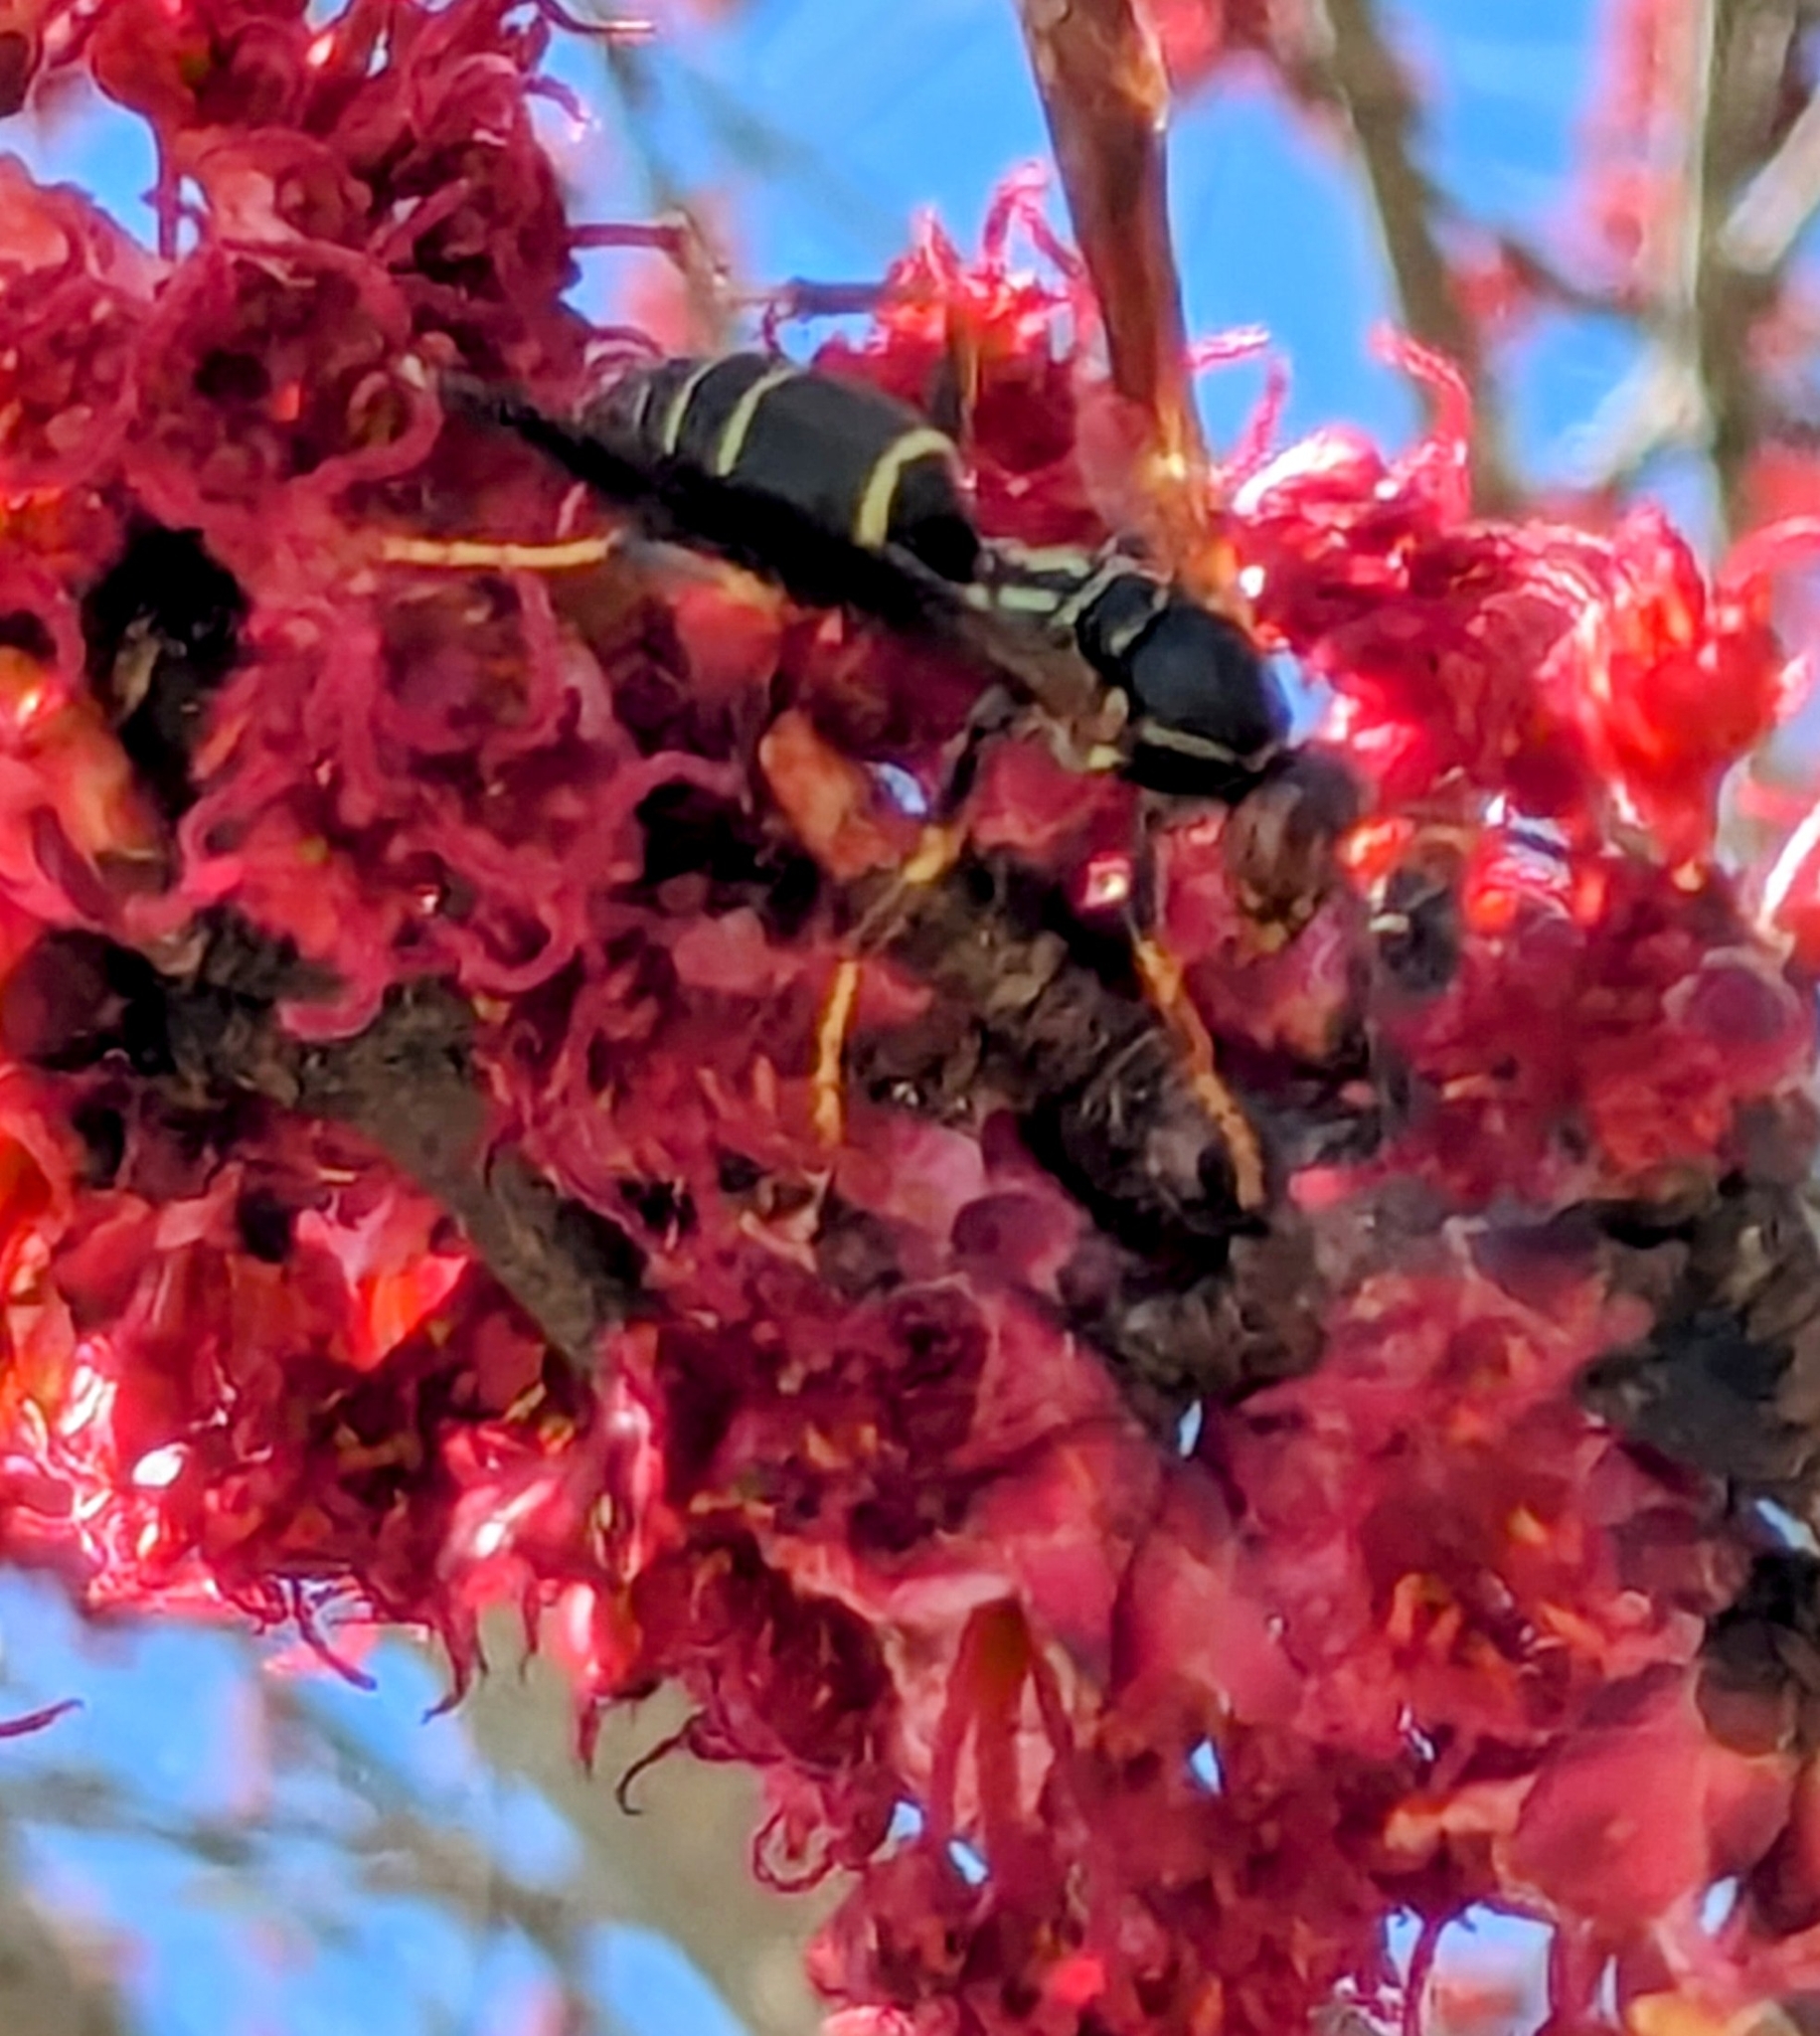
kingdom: Animalia
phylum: Arthropoda
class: Insecta
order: Hymenoptera
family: Eumenidae
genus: Polistes
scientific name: Polistes fuscatus
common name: Dark paper wasp
